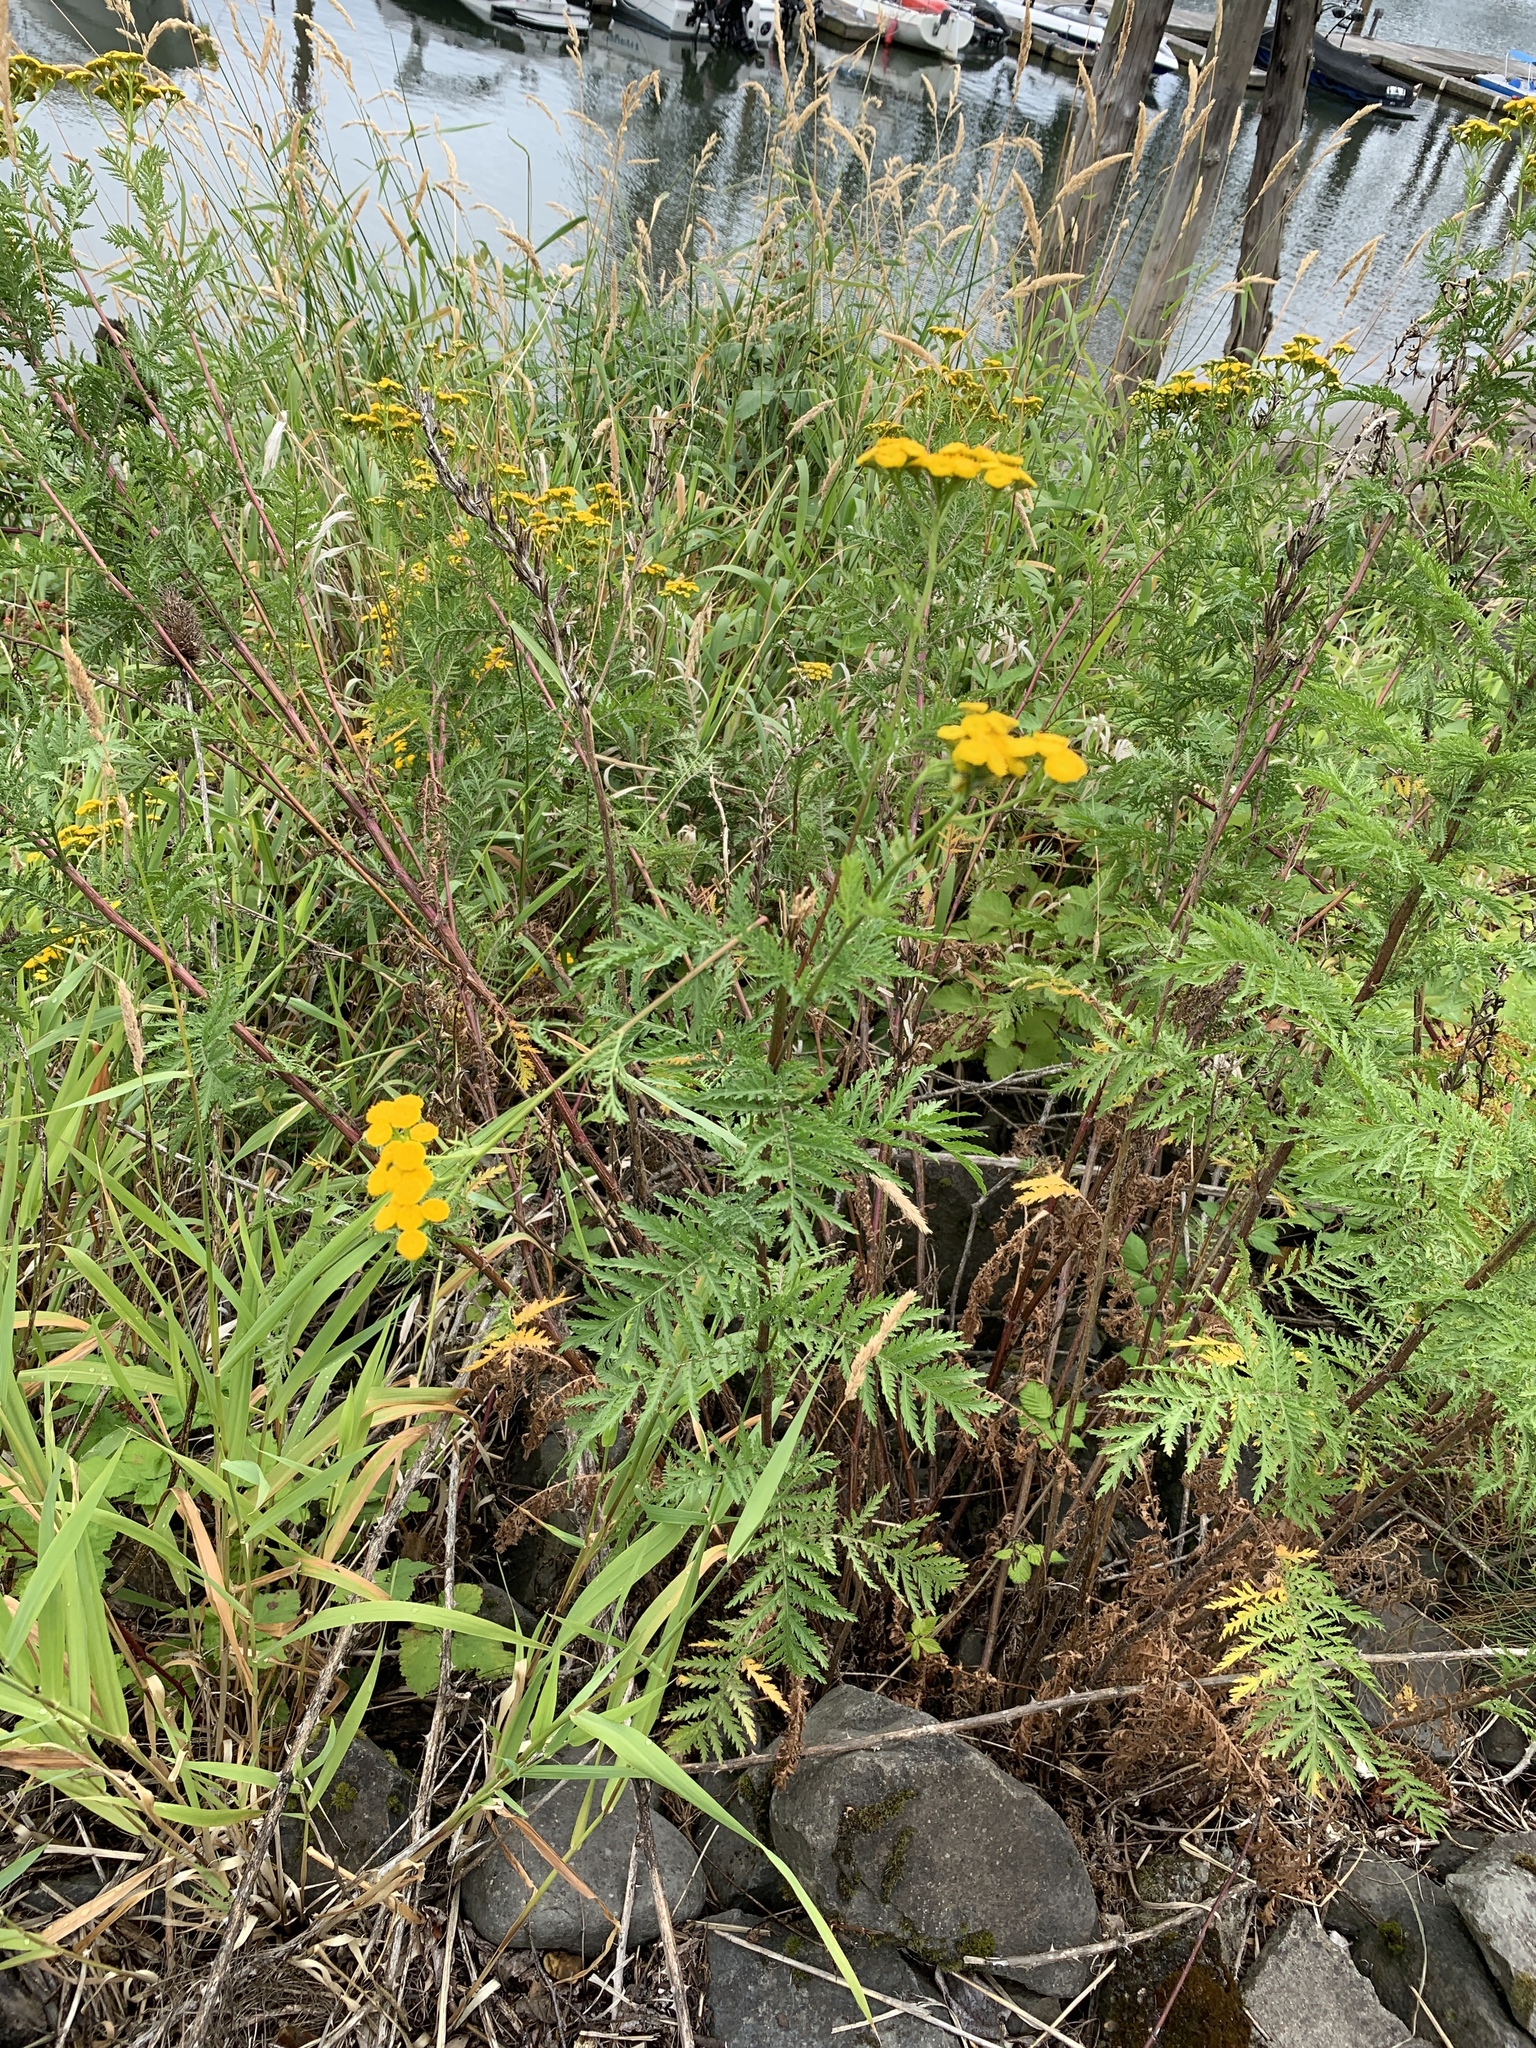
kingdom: Plantae
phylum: Tracheophyta
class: Magnoliopsida
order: Asterales
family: Asteraceae
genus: Tanacetum
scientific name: Tanacetum vulgare
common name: Common tansy
